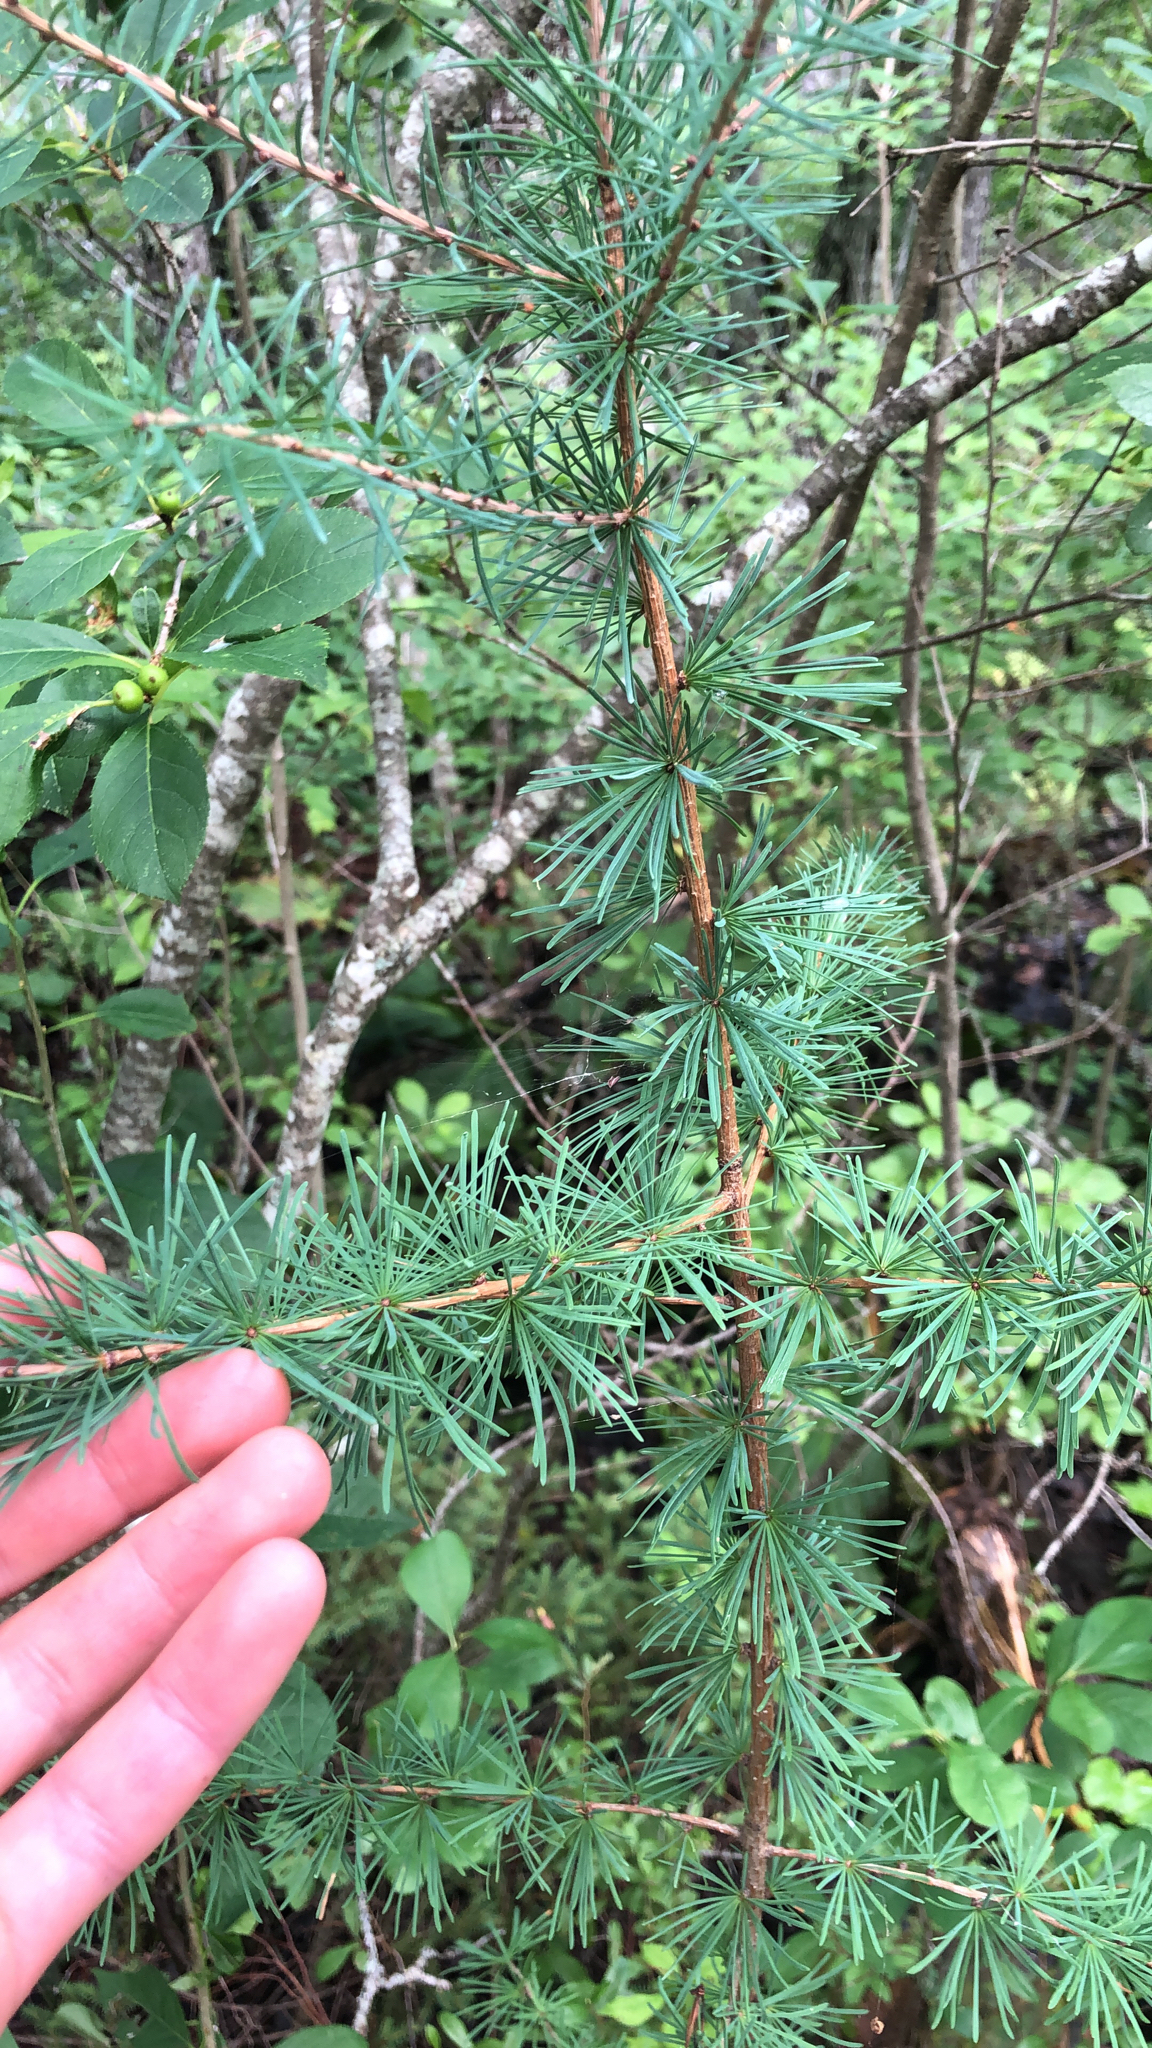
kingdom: Plantae
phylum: Tracheophyta
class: Pinopsida
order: Pinales
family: Pinaceae
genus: Larix
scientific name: Larix laricina
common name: American larch
